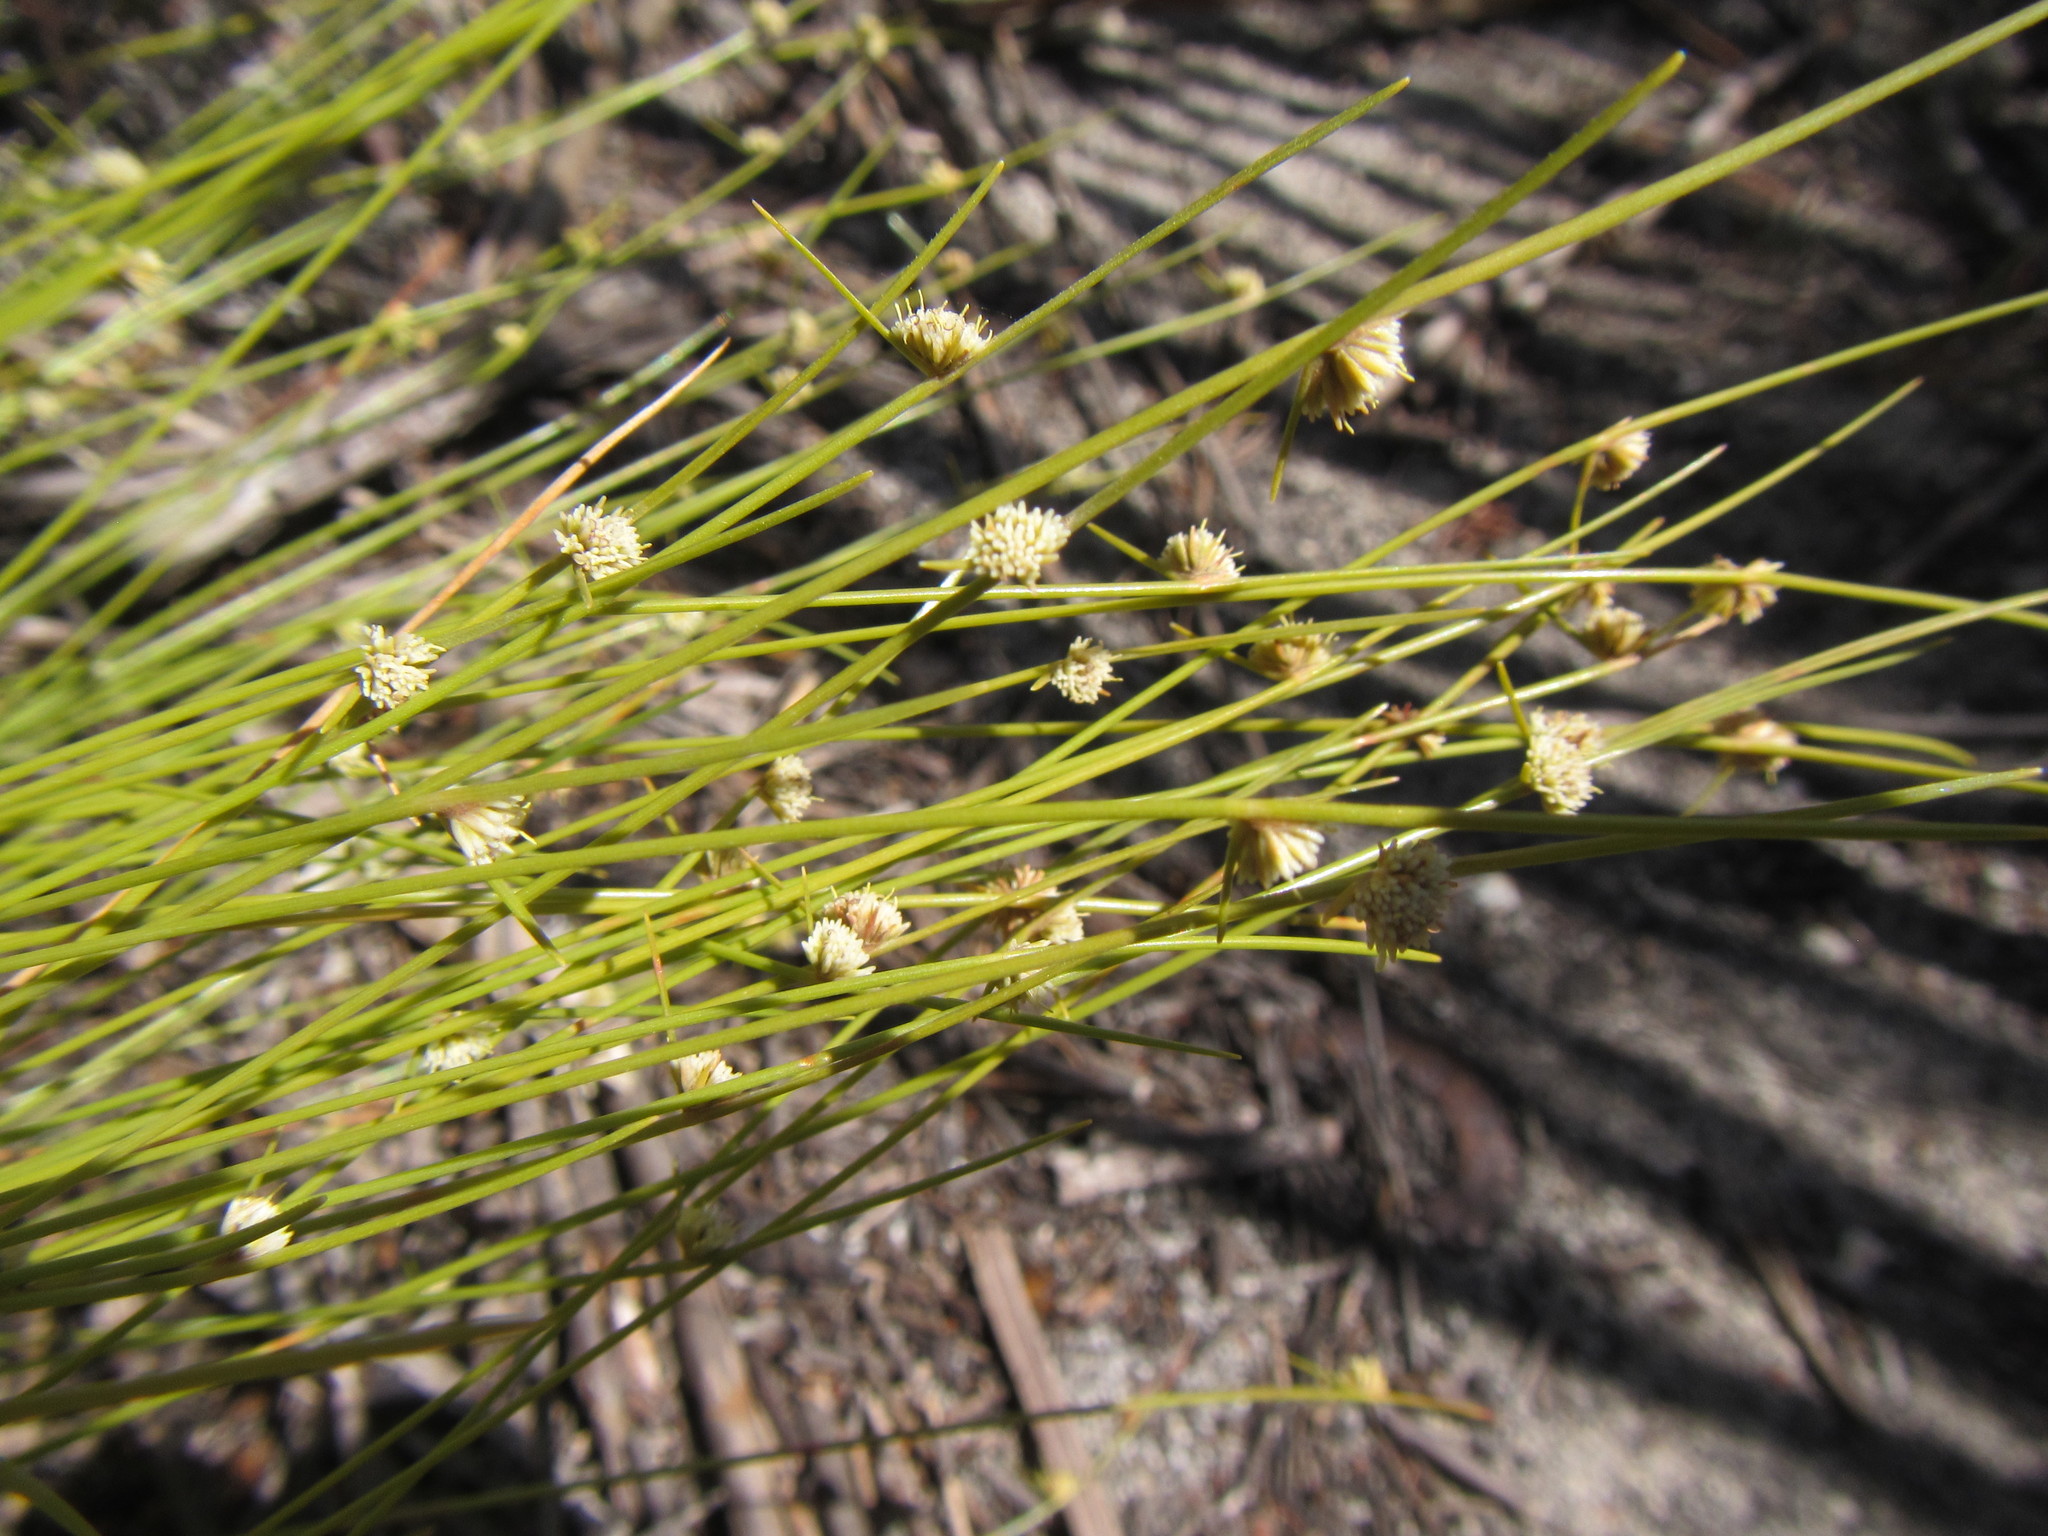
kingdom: Plantae
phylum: Tracheophyta
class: Liliopsida
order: Poales
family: Cyperaceae
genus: Ficinia
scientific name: Ficinia minutiflora
